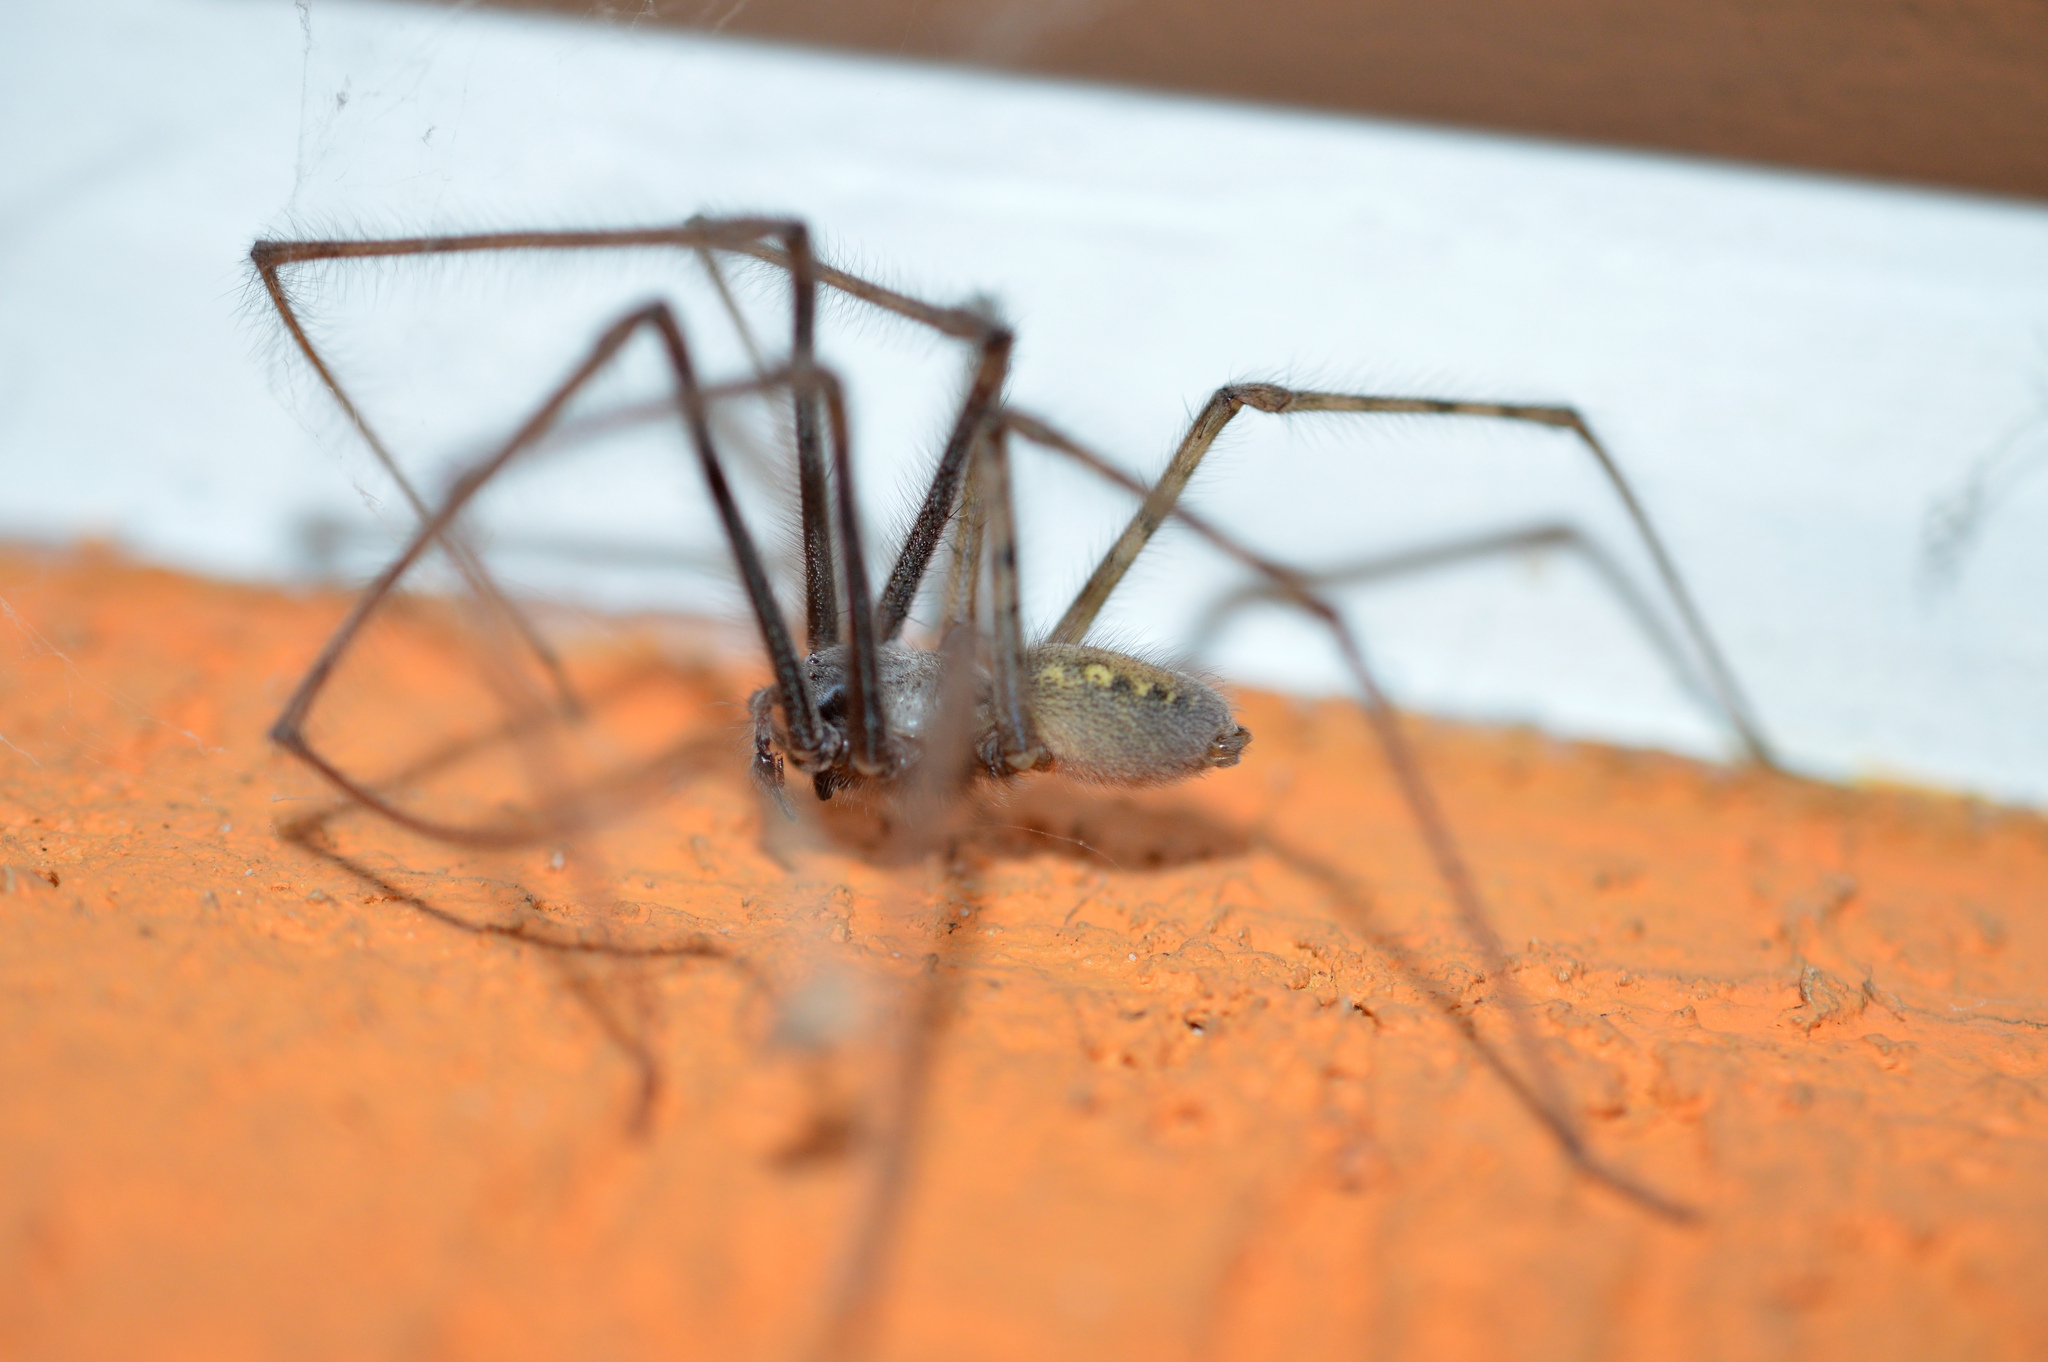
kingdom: Animalia
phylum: Arthropoda
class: Arachnida
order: Araneae
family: Agelenidae
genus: Tegenaria
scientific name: Tegenaria parietina
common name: Cardinal spider
